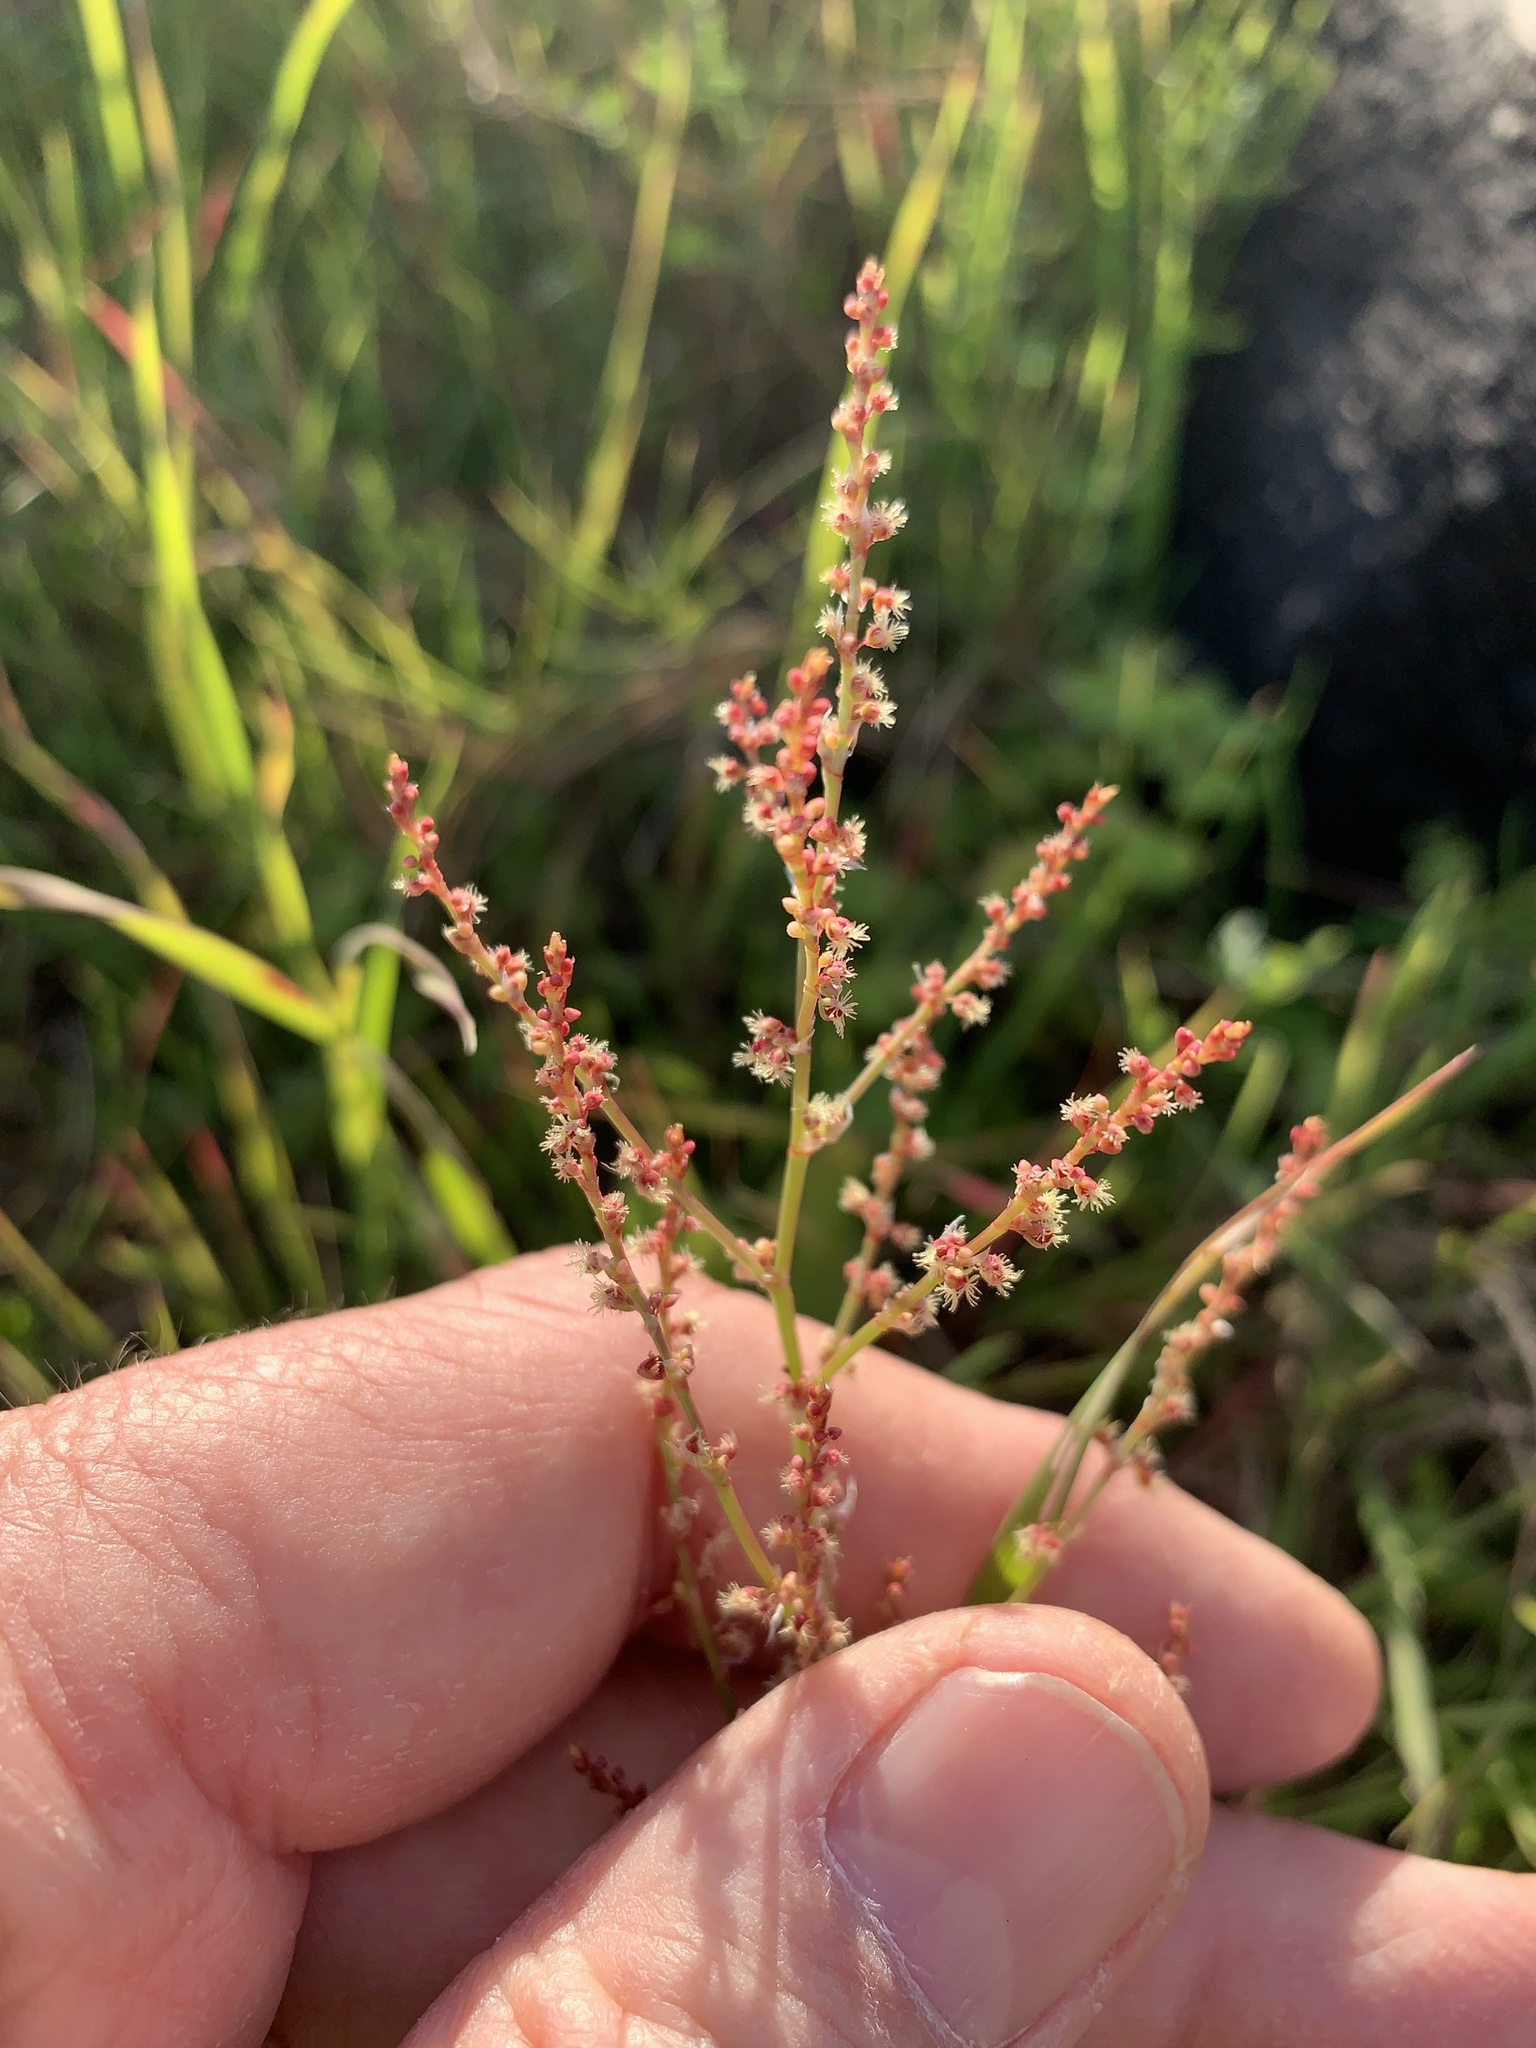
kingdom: Plantae
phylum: Tracheophyta
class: Magnoliopsida
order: Caryophyllales
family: Polygonaceae
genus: Rumex
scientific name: Rumex acetosella
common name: Common sheep sorrel
